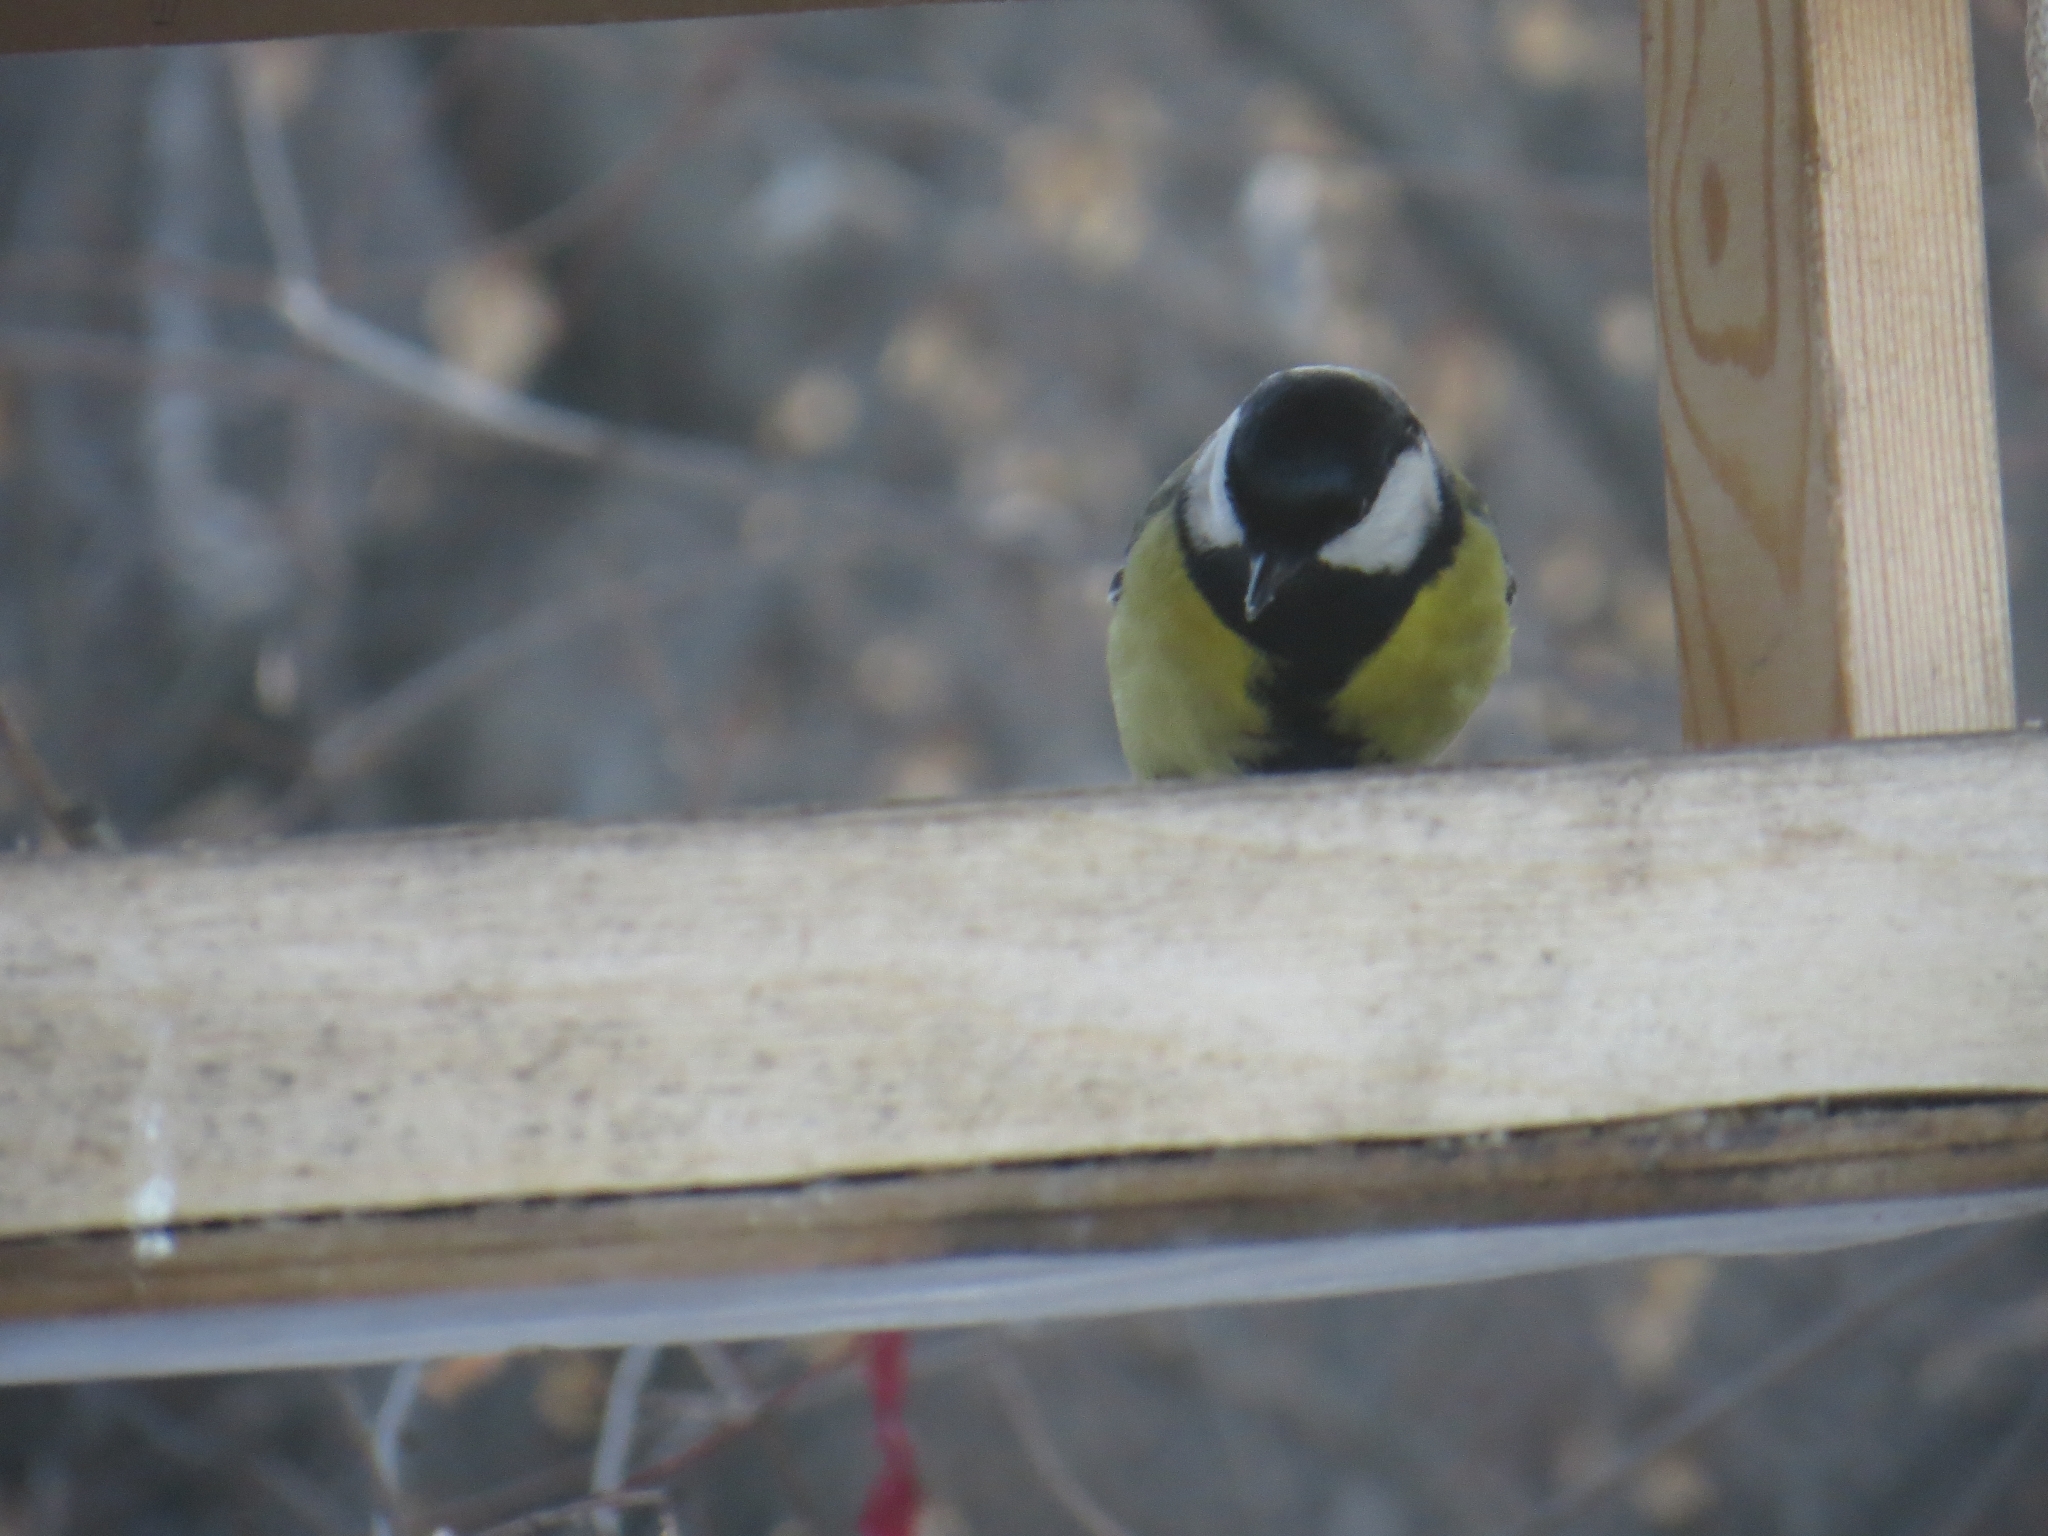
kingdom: Animalia
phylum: Chordata
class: Aves
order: Passeriformes
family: Paridae
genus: Parus
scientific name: Parus major
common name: Great tit
